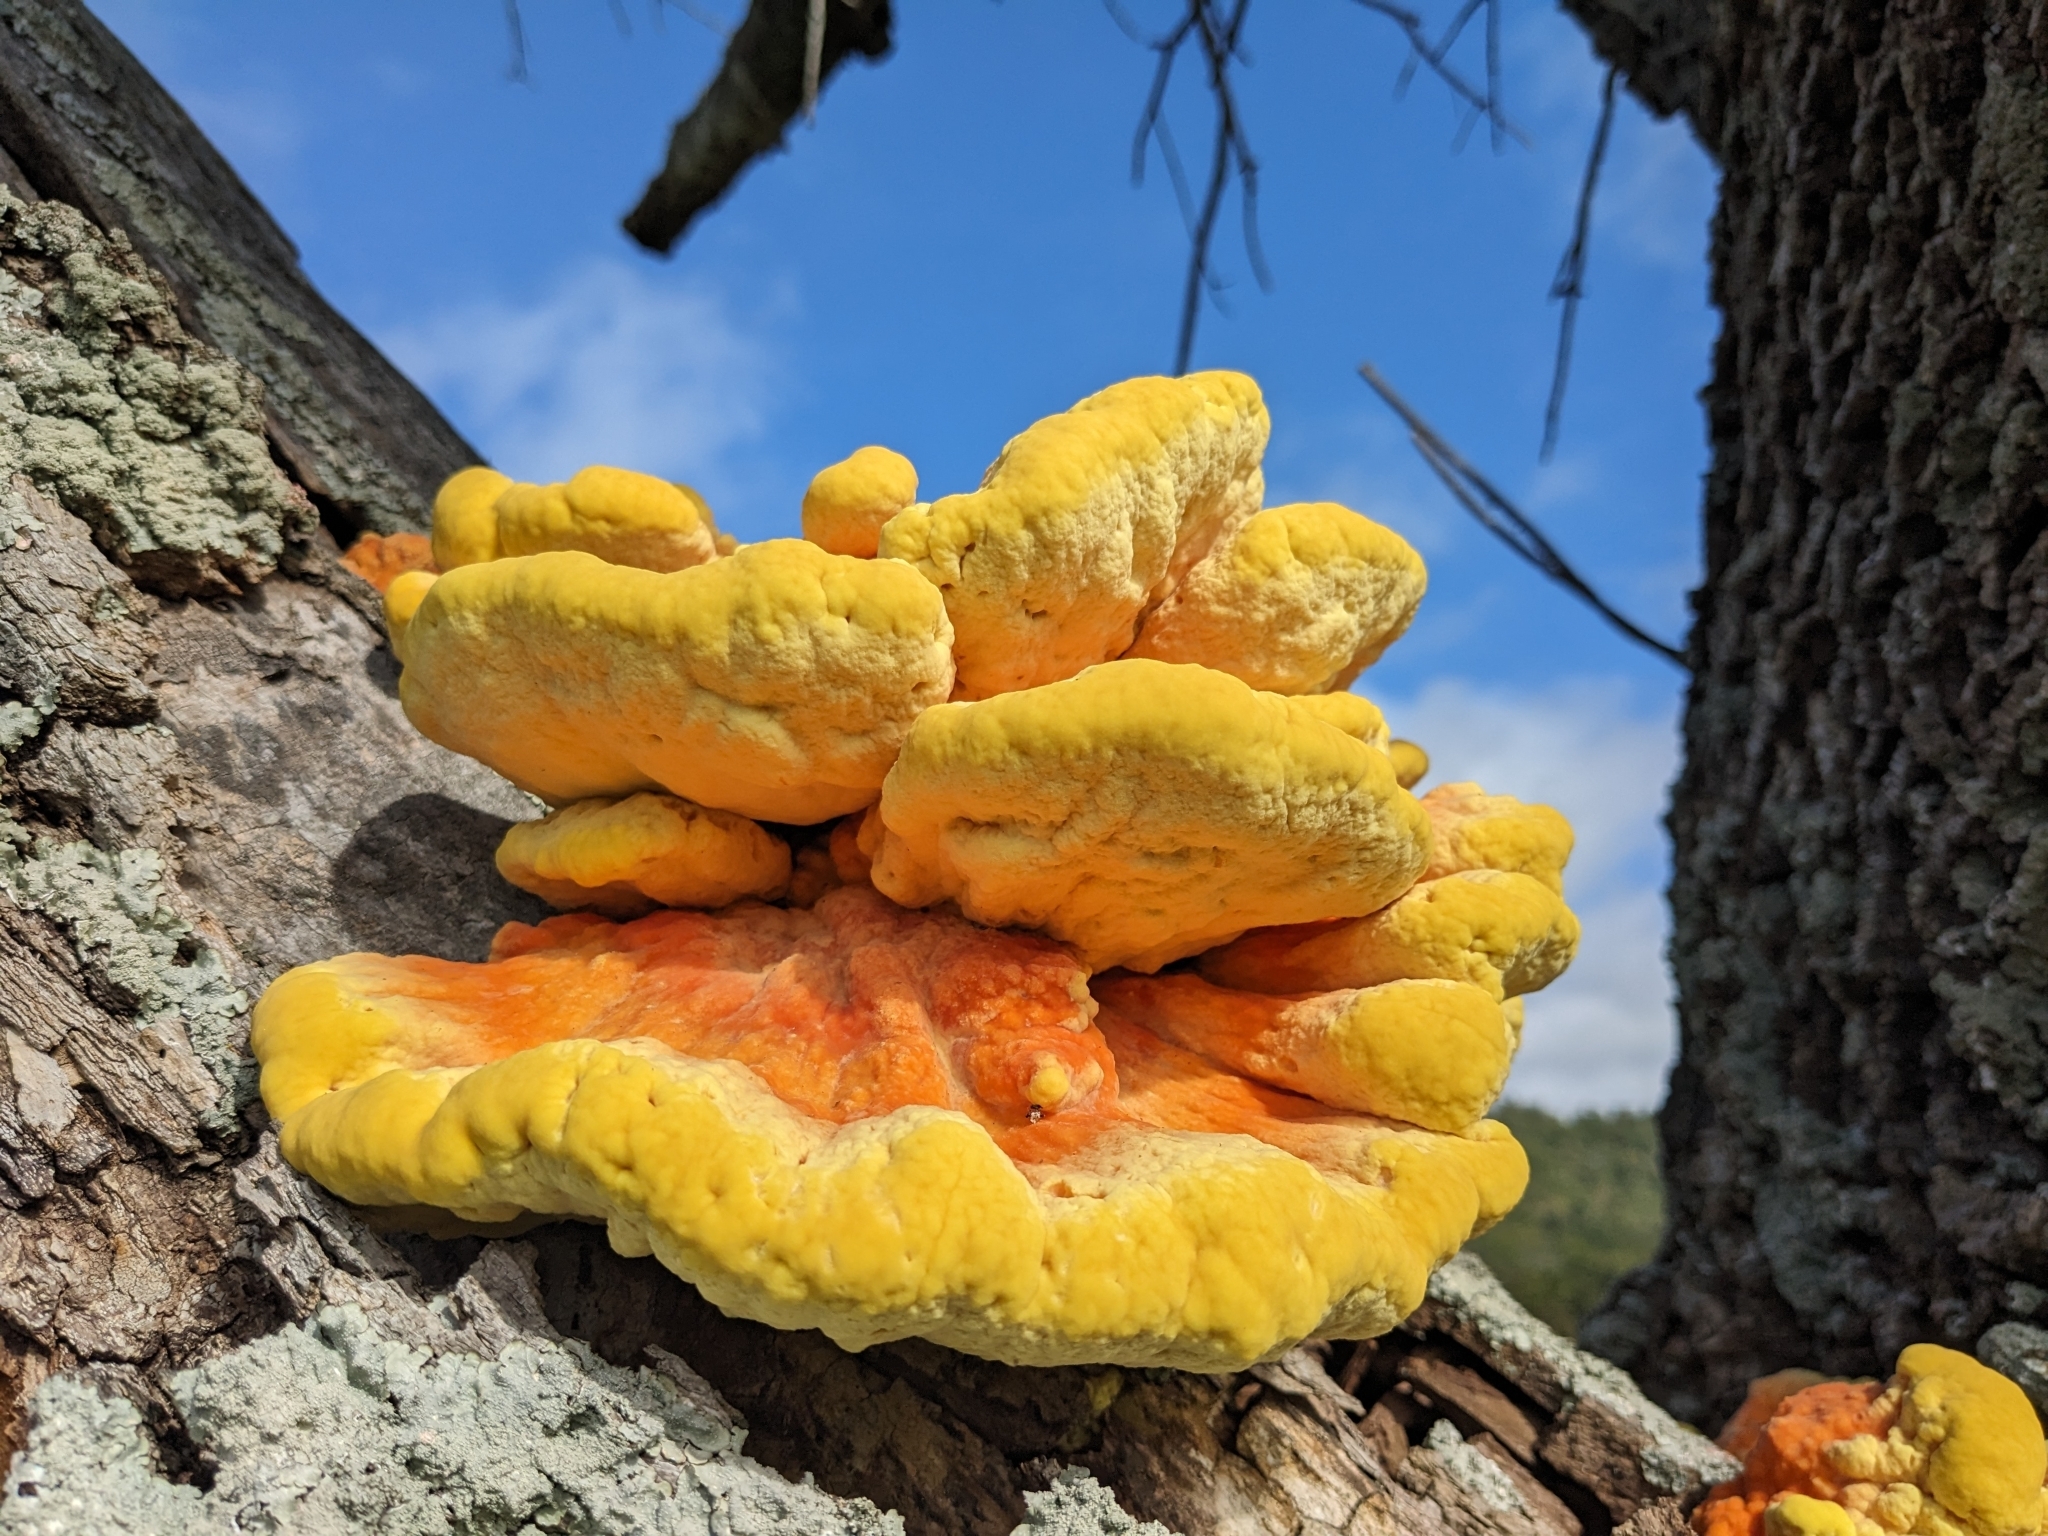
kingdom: Fungi
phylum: Basidiomycota
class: Agaricomycetes
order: Polyporales
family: Laetiporaceae
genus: Laetiporus
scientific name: Laetiporus sulphureus
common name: Chicken of the woods
